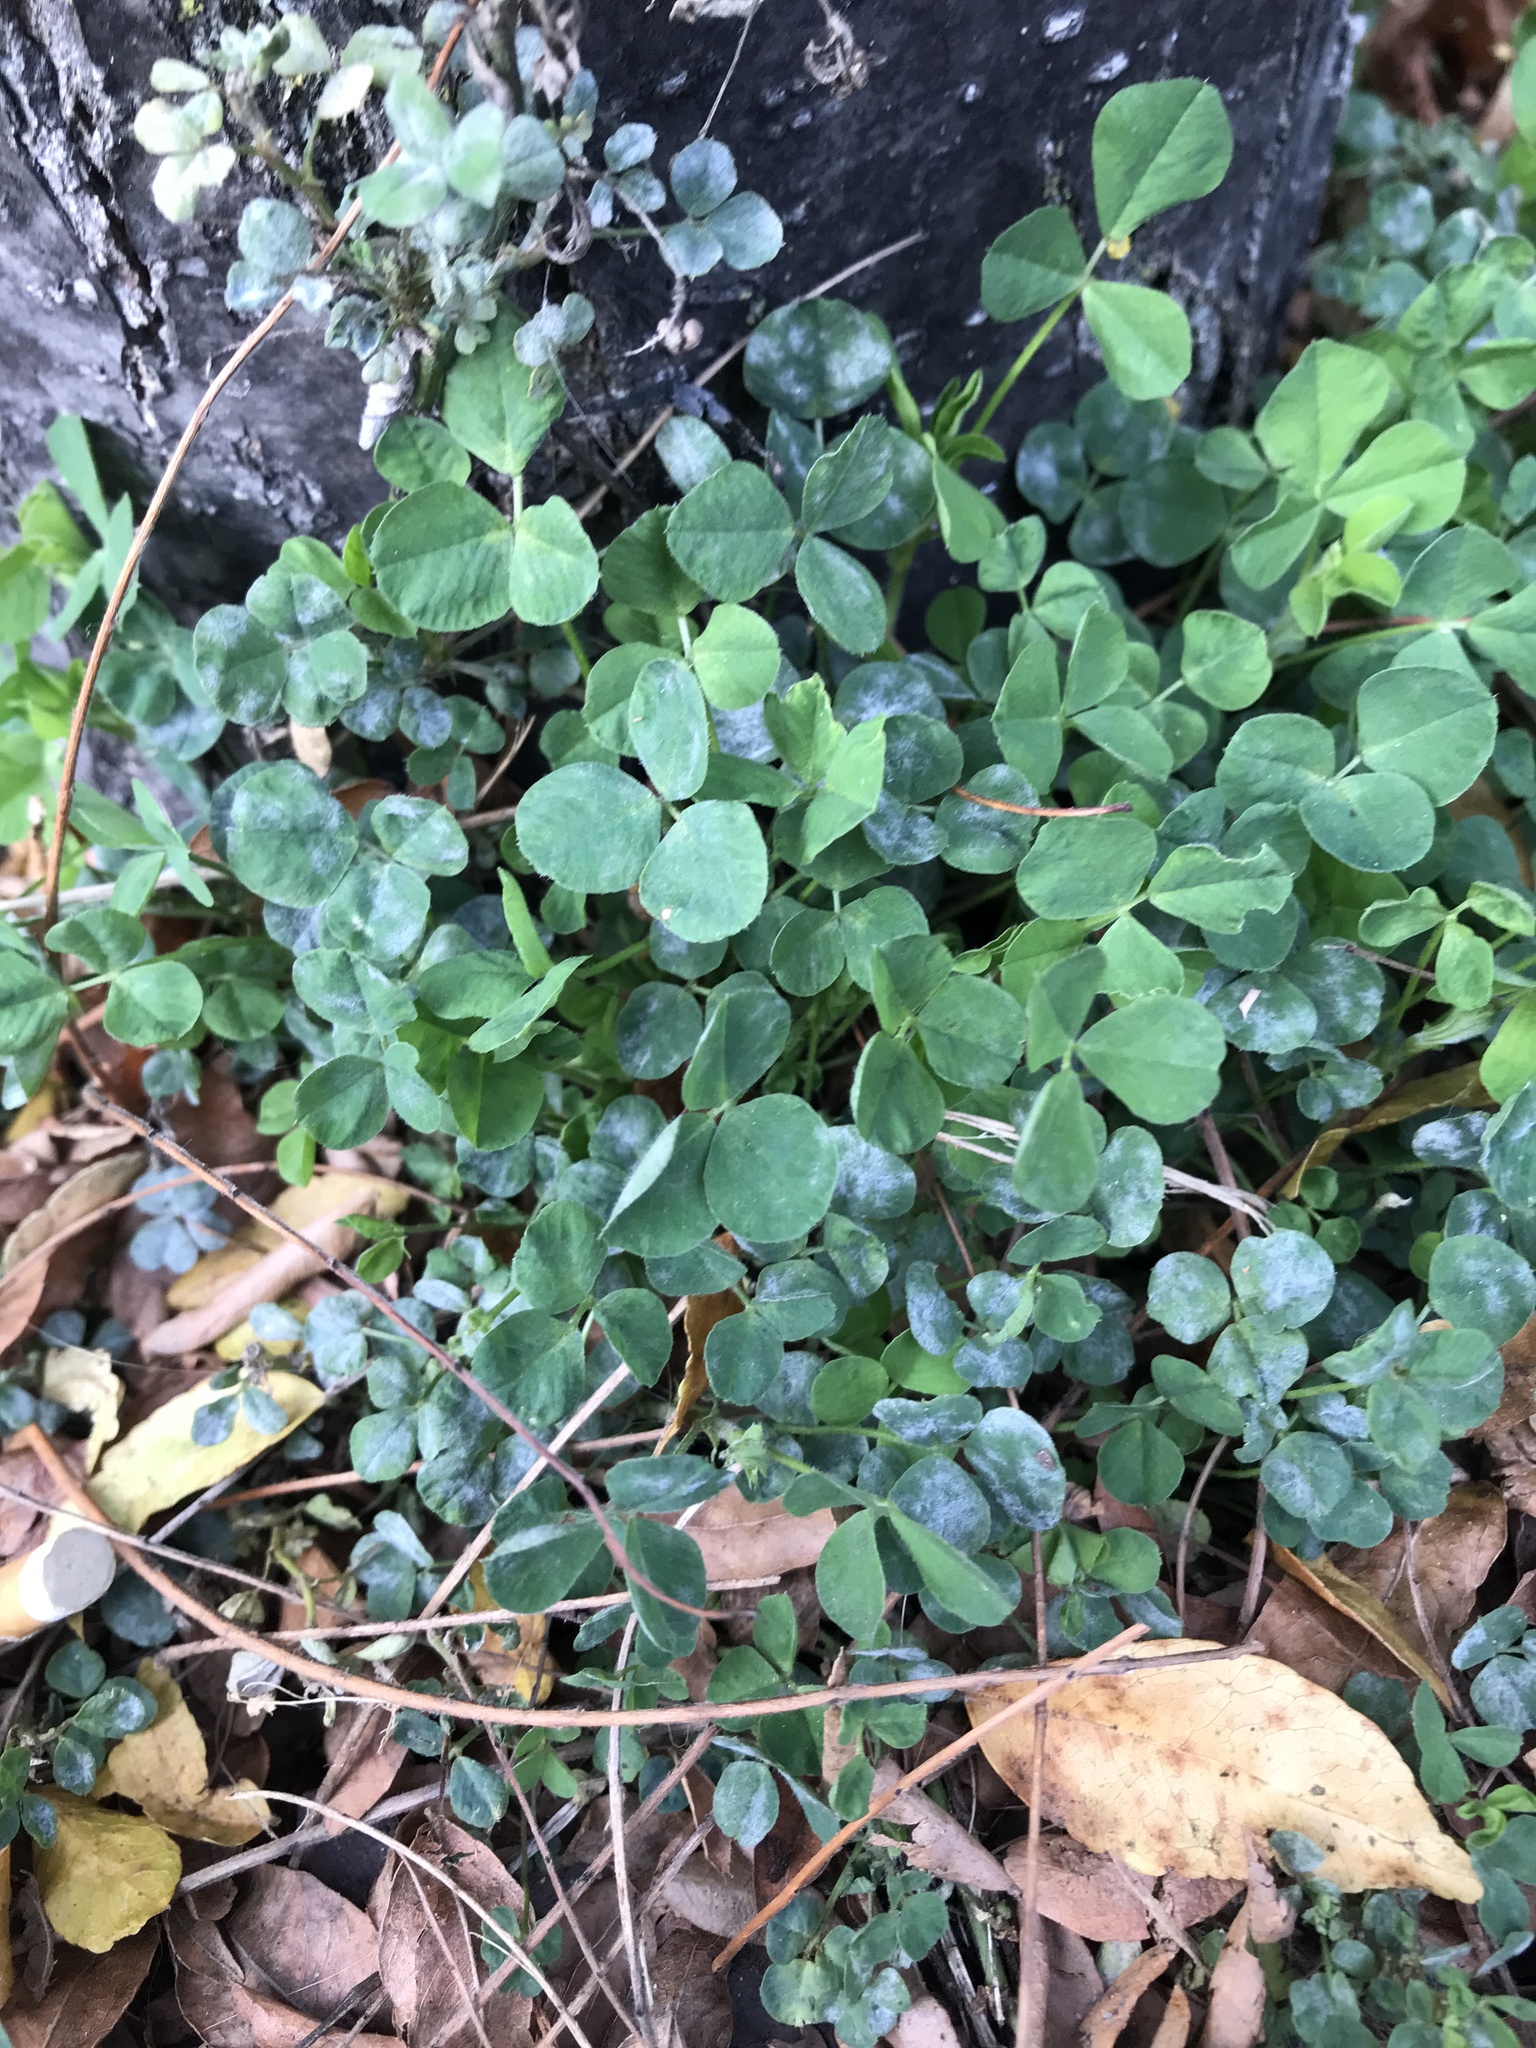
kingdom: Plantae
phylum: Tracheophyta
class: Magnoliopsida
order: Fabales
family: Fabaceae
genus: Trifolium
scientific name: Trifolium repens
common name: White clover
